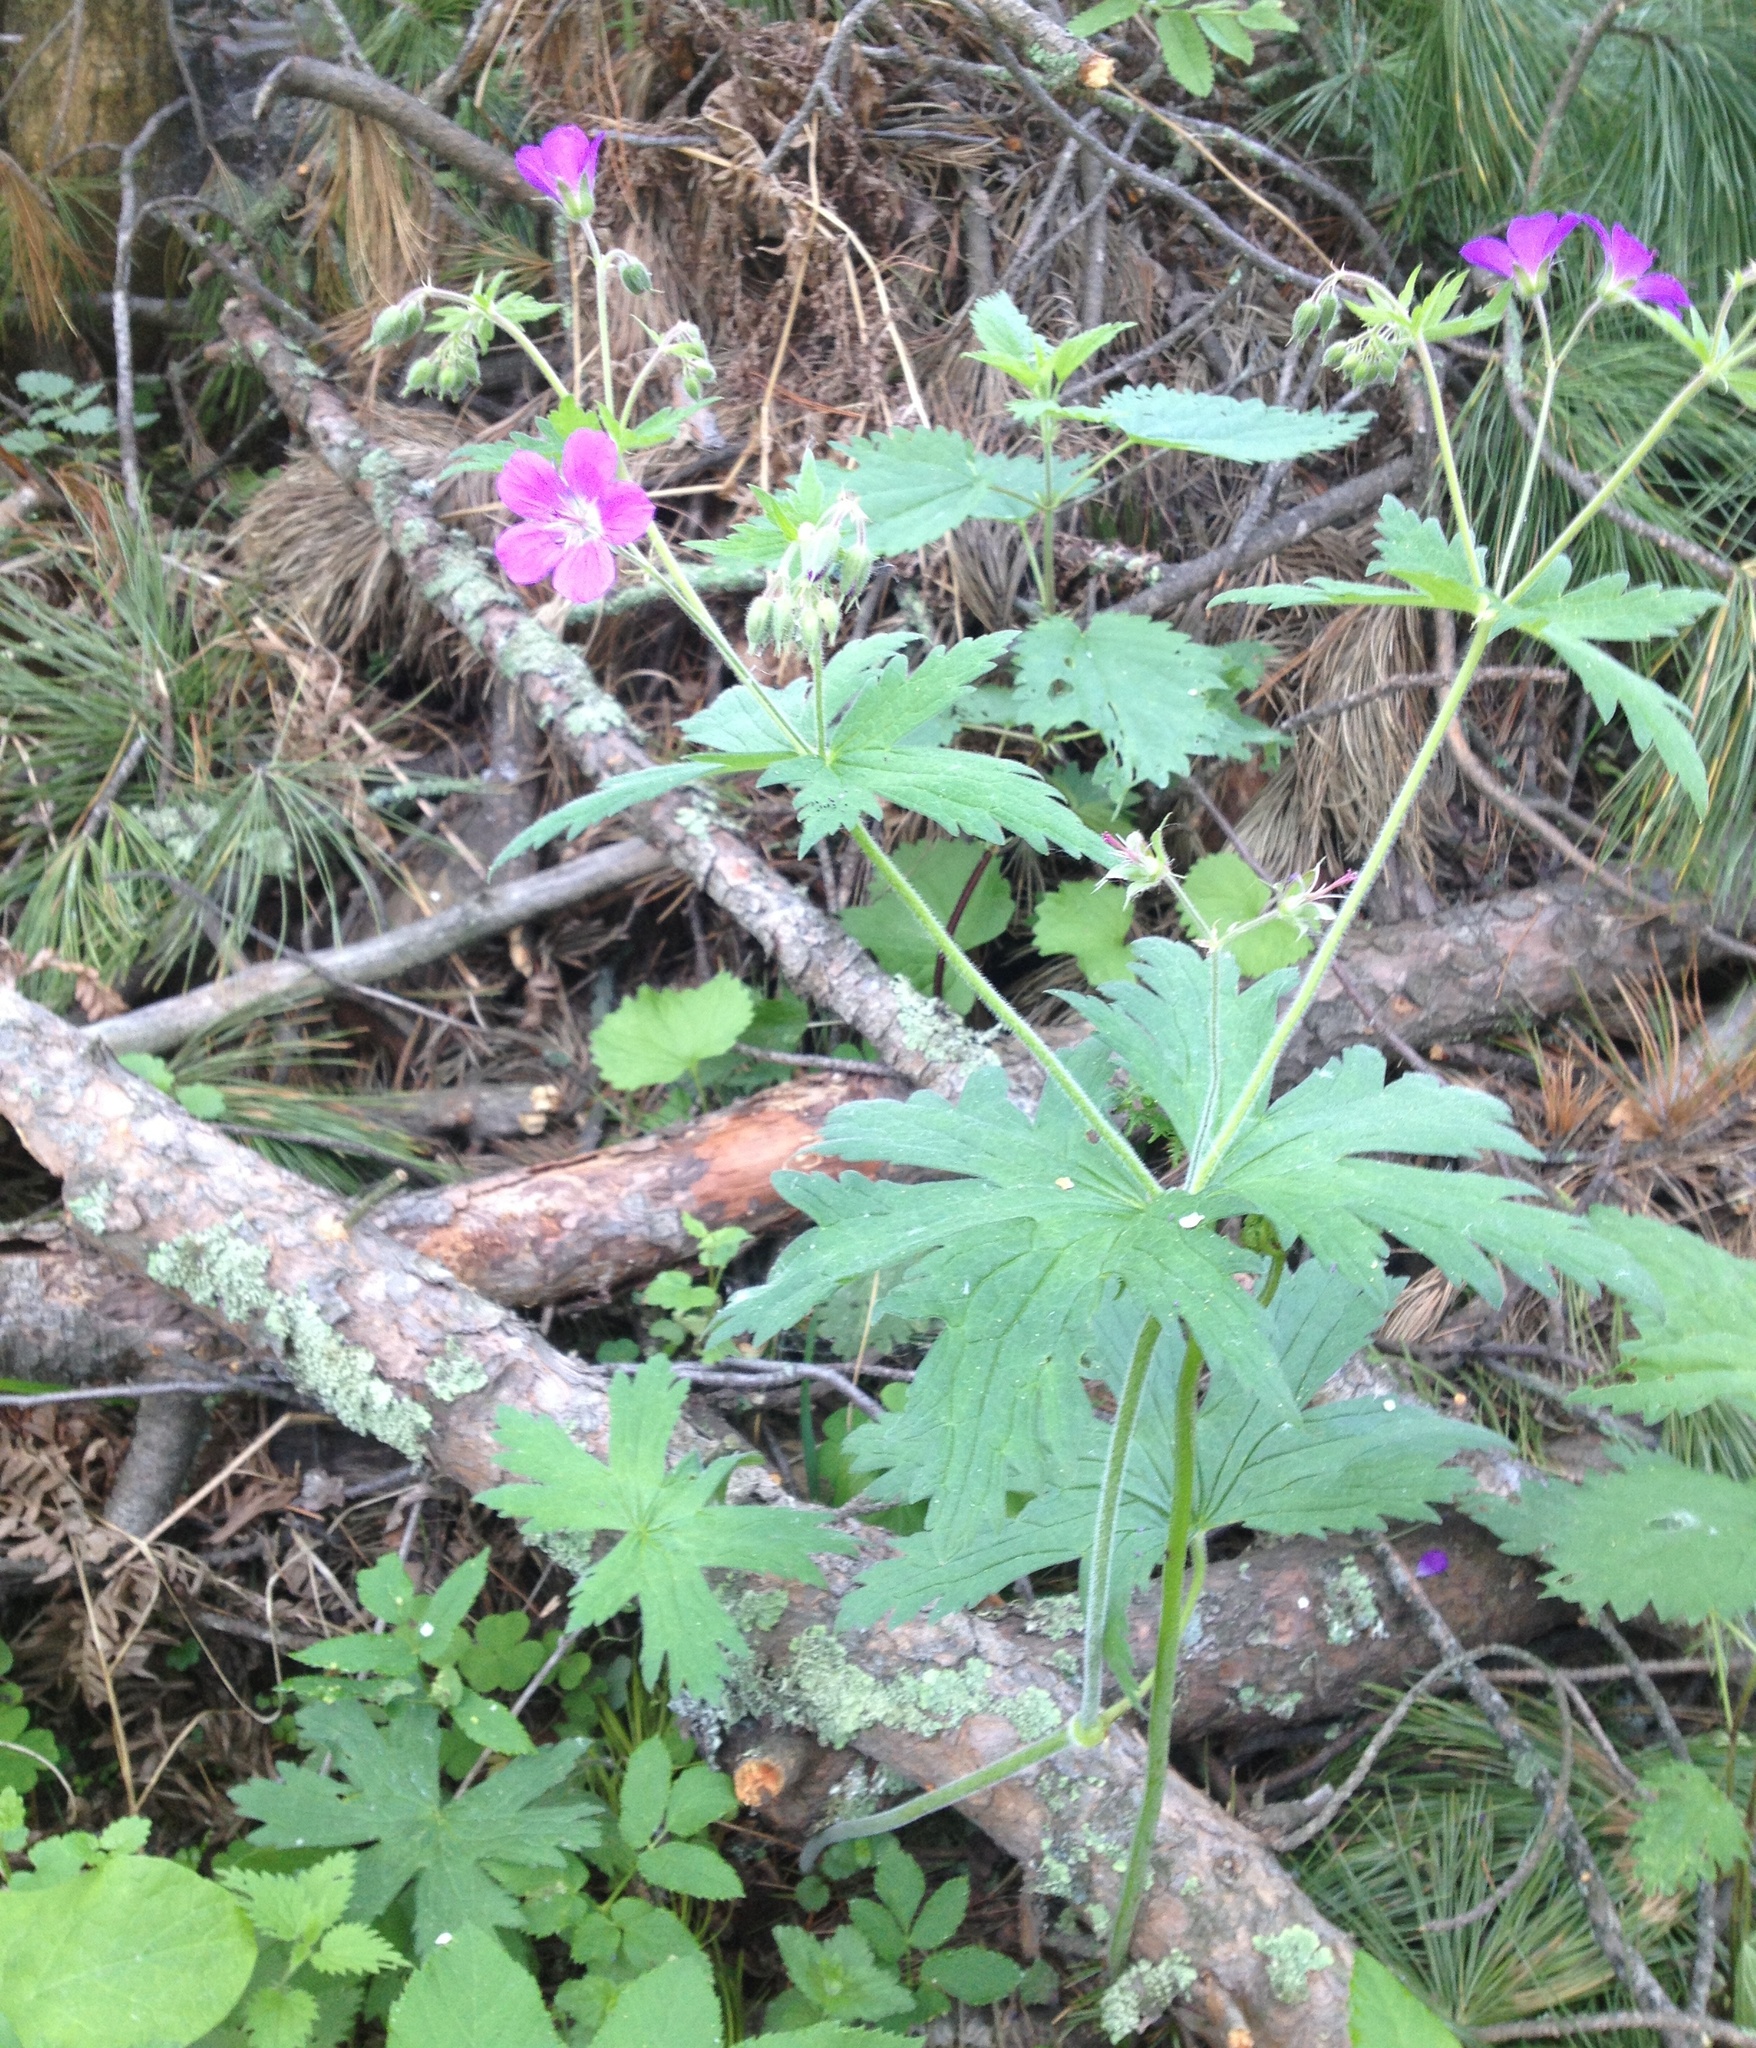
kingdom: Plantae
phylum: Tracheophyta
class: Magnoliopsida
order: Geraniales
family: Geraniaceae
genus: Geranium
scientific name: Geranium sylvaticum
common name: Wood crane's-bill
